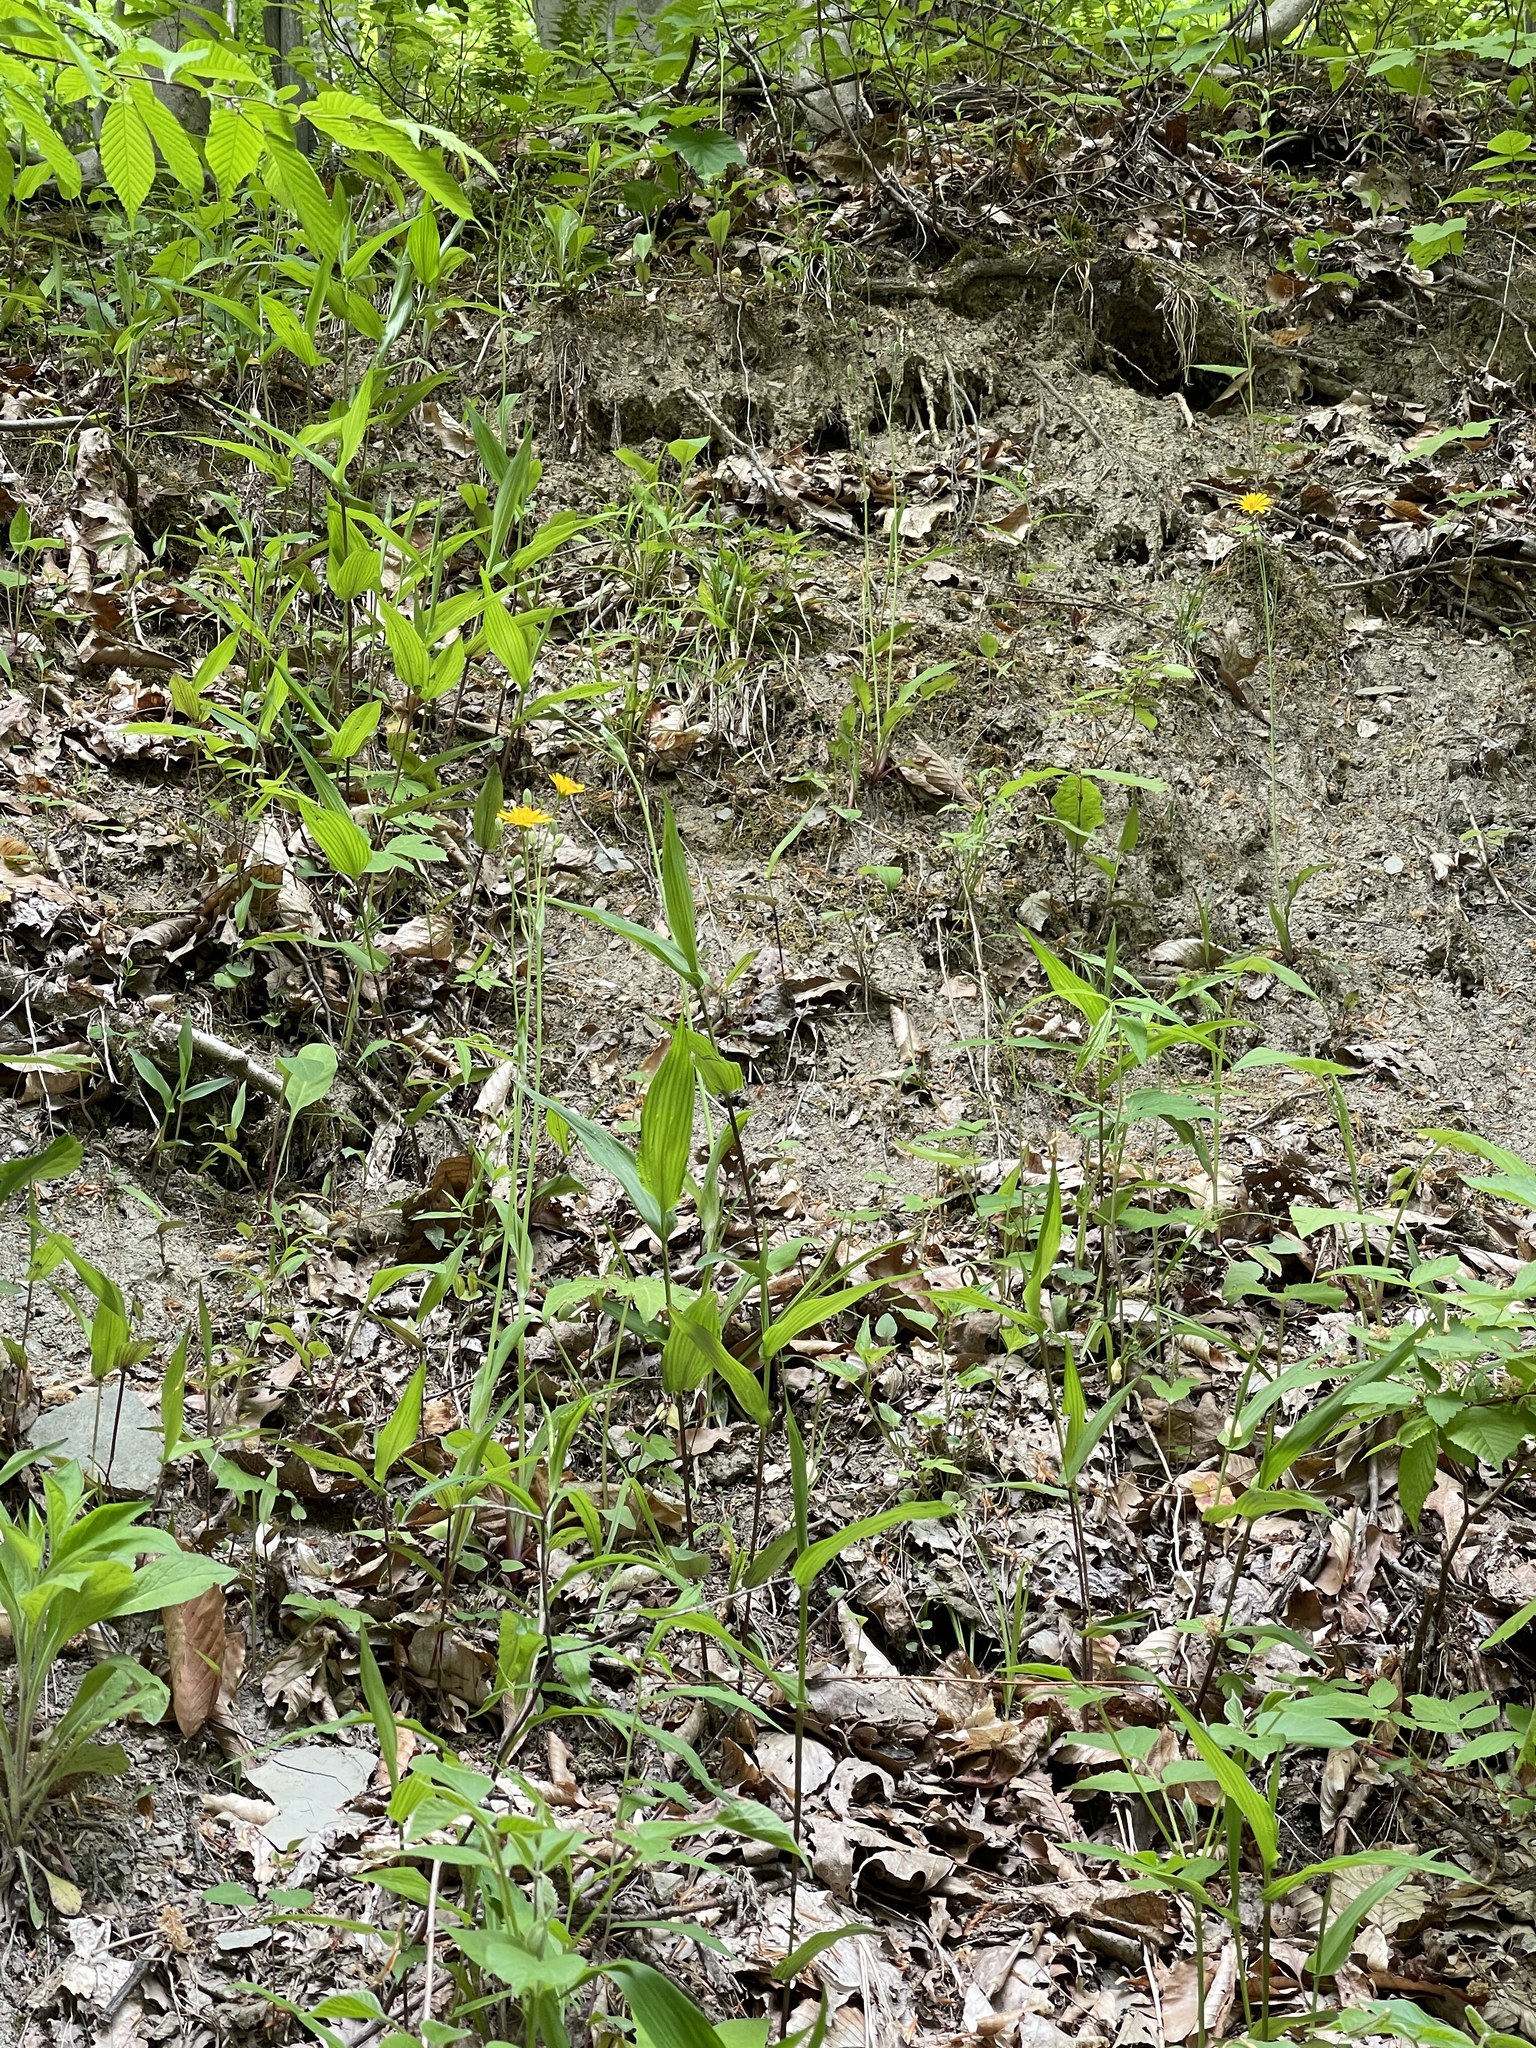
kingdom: Plantae
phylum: Tracheophyta
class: Magnoliopsida
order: Asterales
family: Asteraceae
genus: Krigia
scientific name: Krigia biflora
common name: Orange dwarf-dandelion
